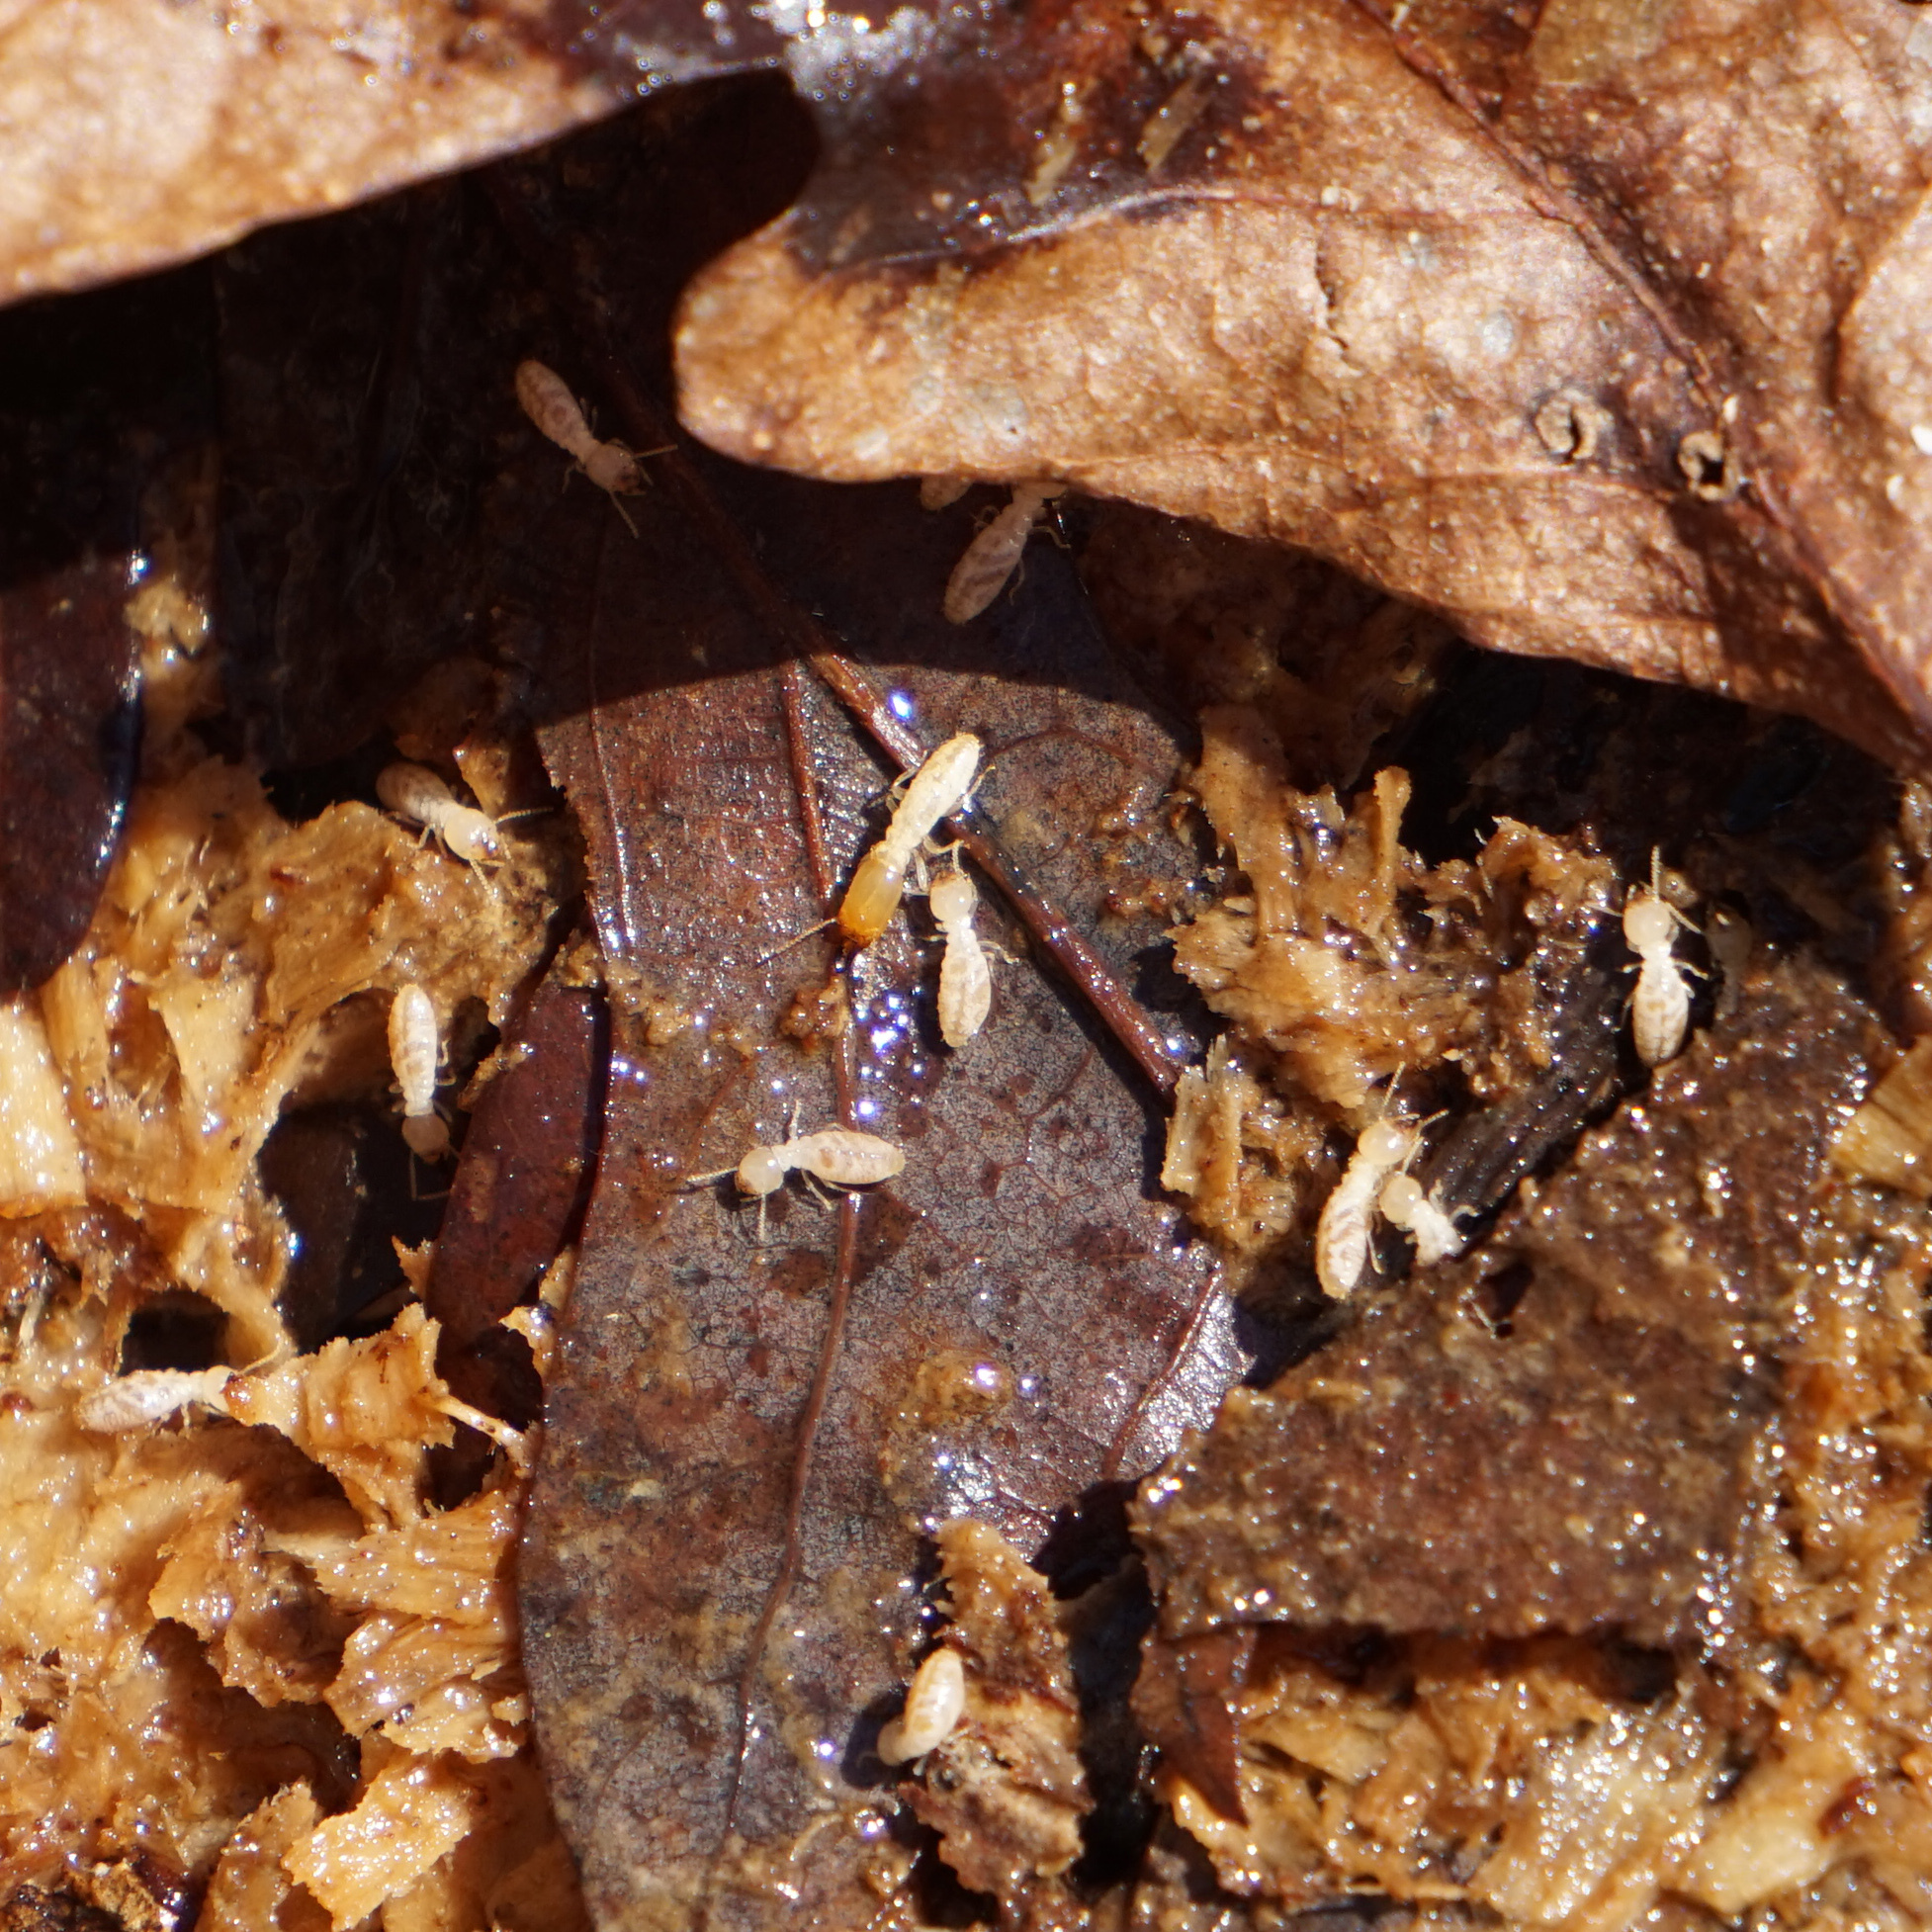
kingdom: Animalia
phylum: Arthropoda
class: Insecta
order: Blattodea
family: Rhinotermitidae
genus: Reticulitermes
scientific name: Reticulitermes flavipes
